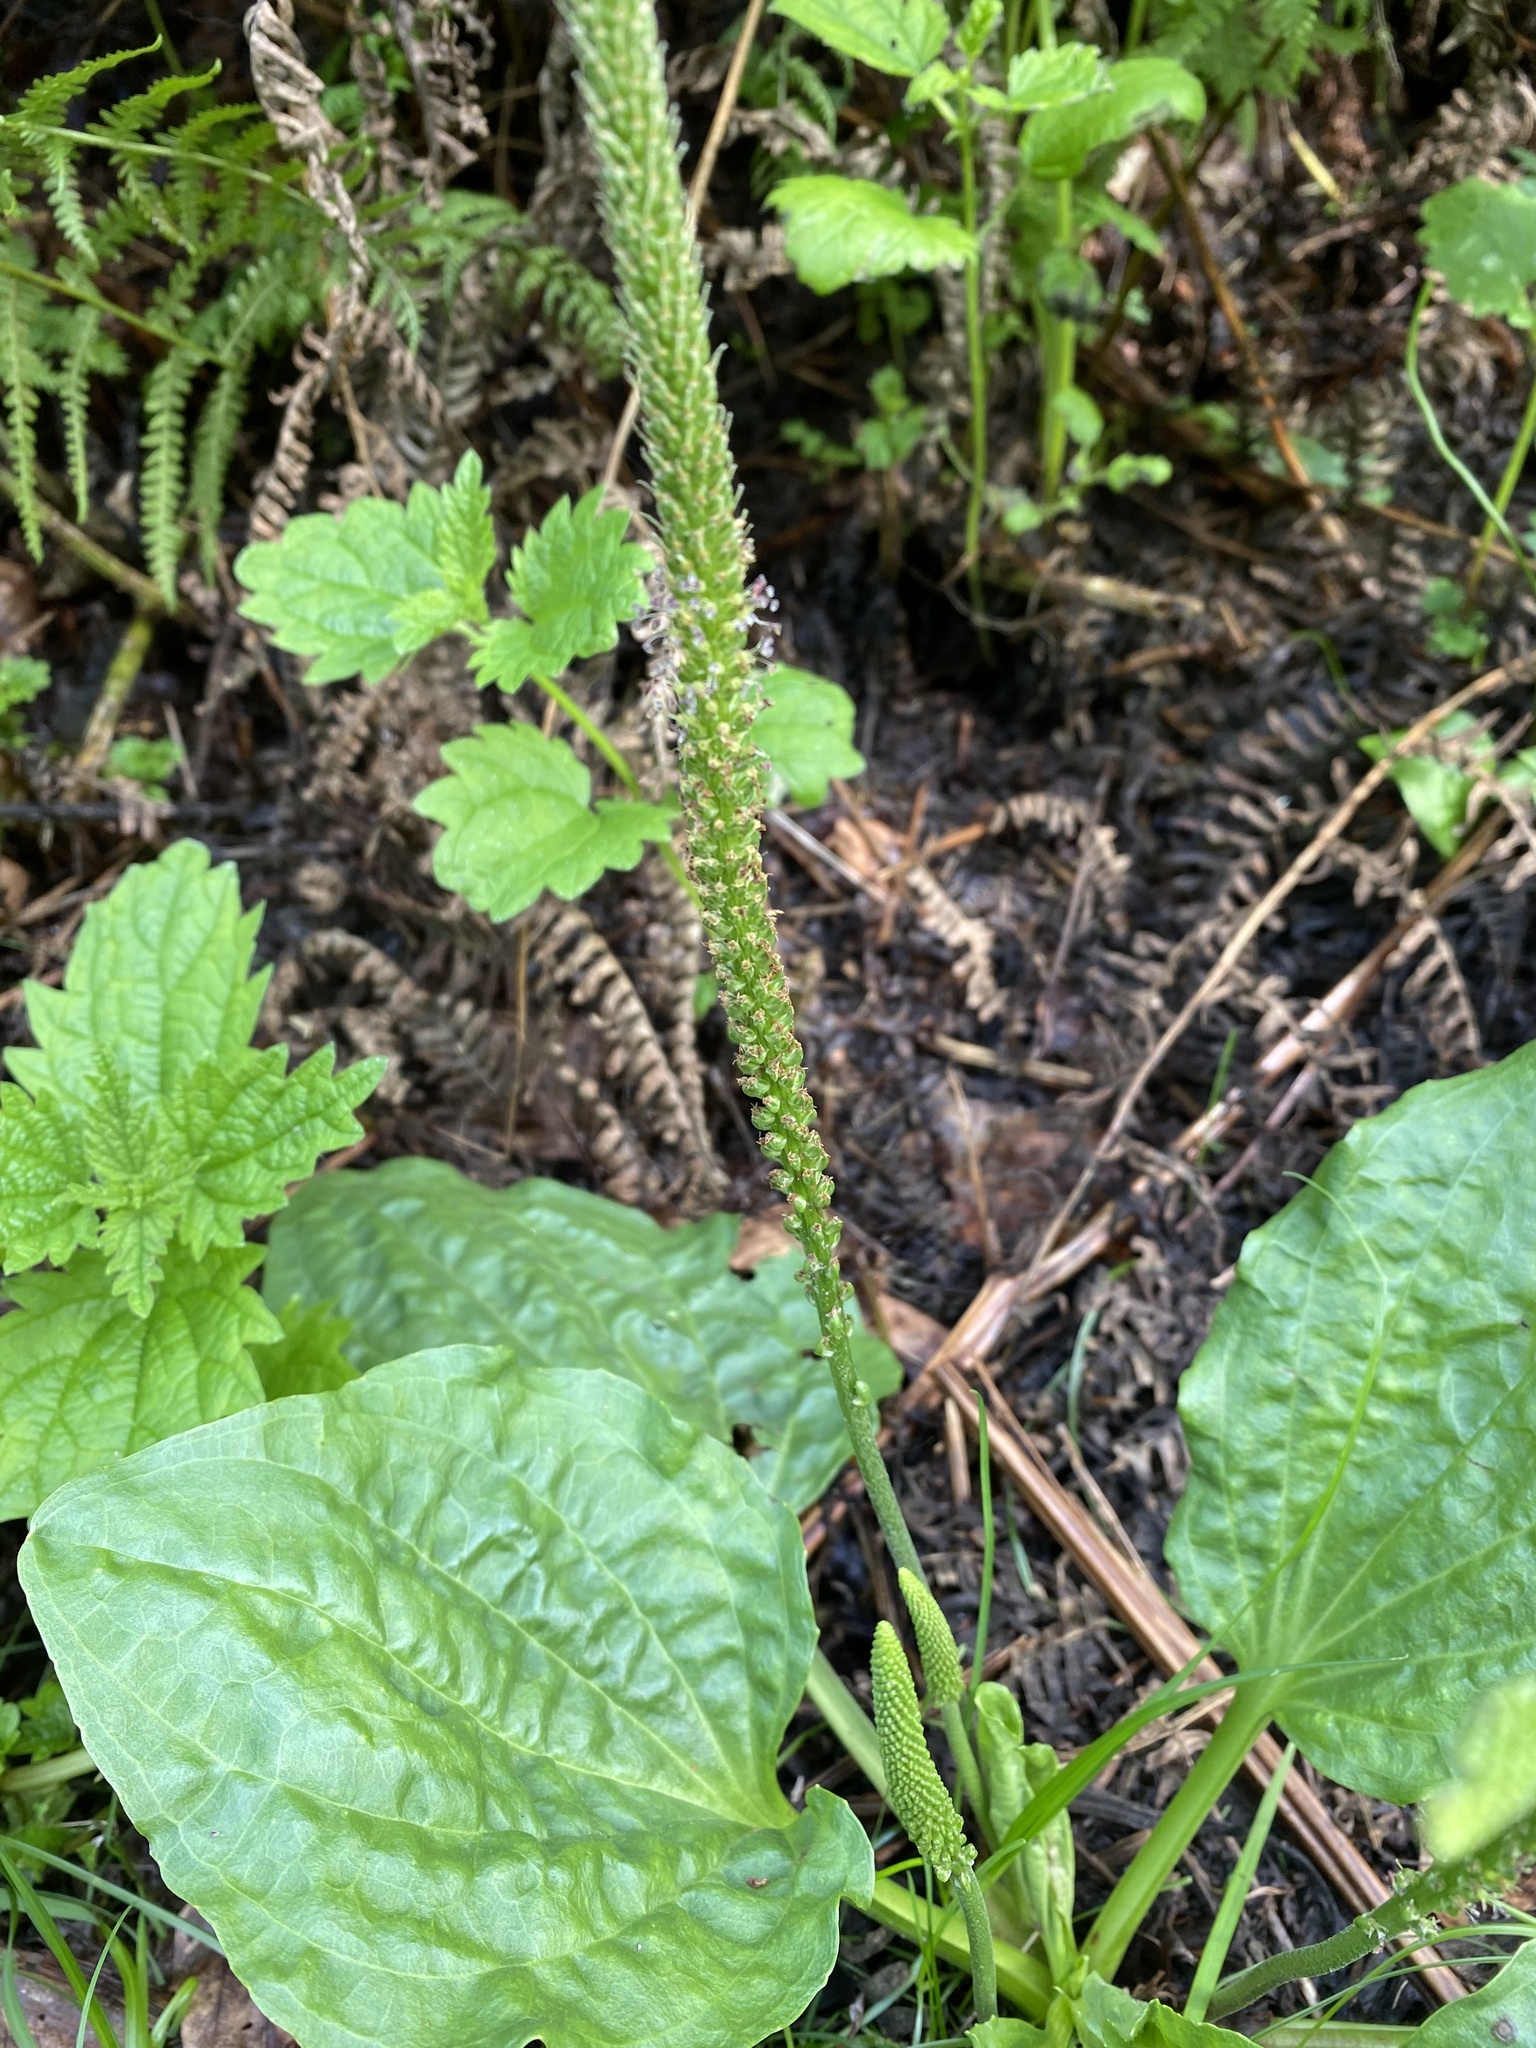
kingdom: Plantae
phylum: Tracheophyta
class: Magnoliopsida
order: Lamiales
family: Plantaginaceae
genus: Plantago
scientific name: Plantago major
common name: Common plantain
